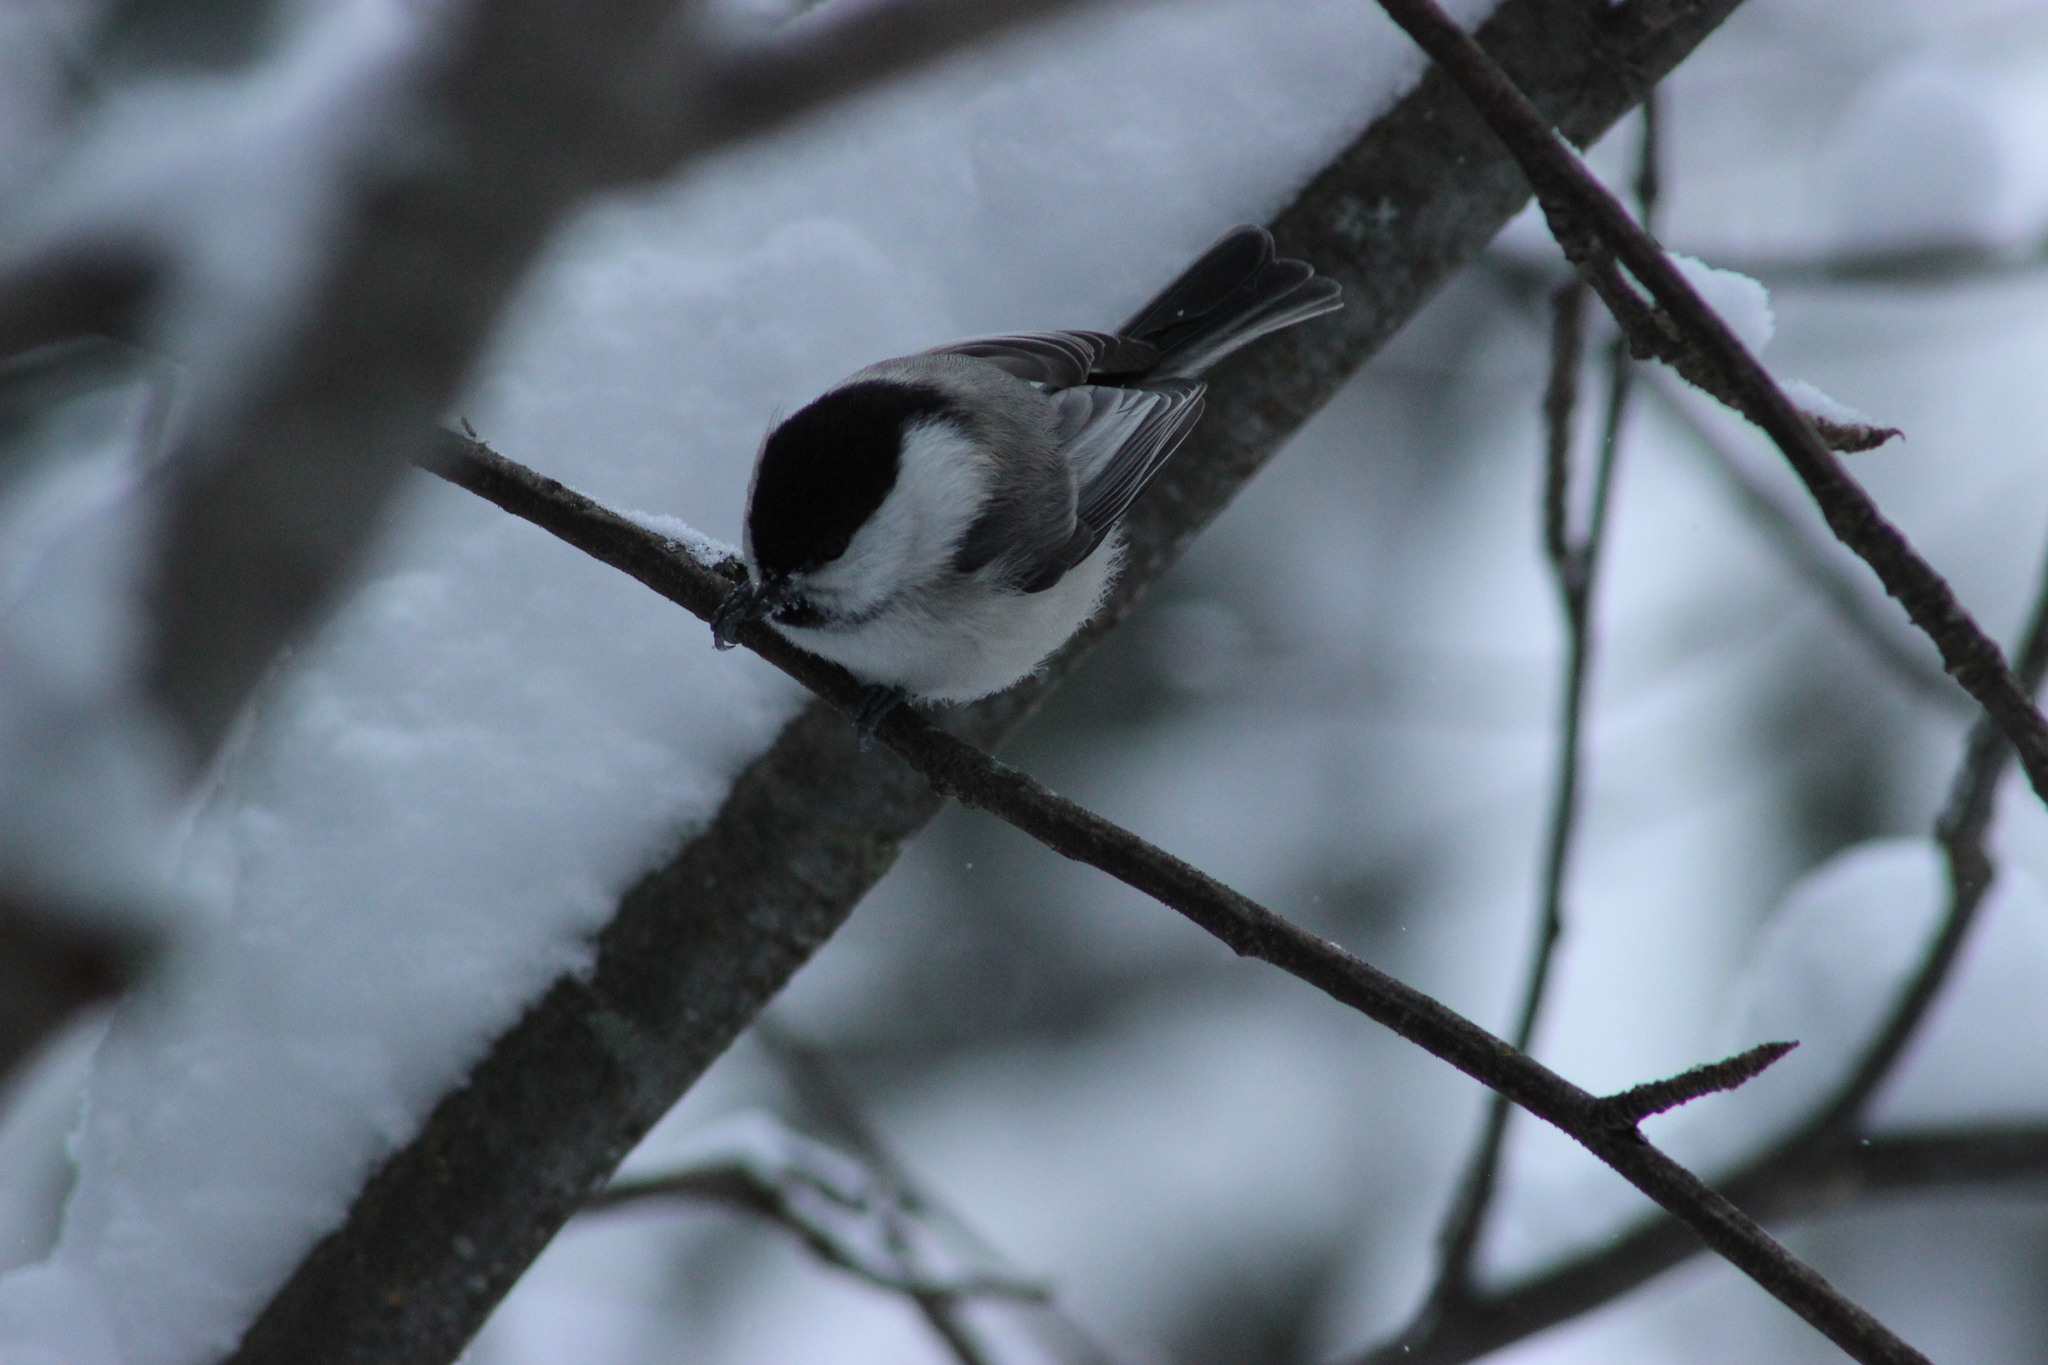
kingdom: Animalia
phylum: Chordata
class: Aves
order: Passeriformes
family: Paridae
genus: Poecile
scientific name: Poecile montanus
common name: Willow tit
